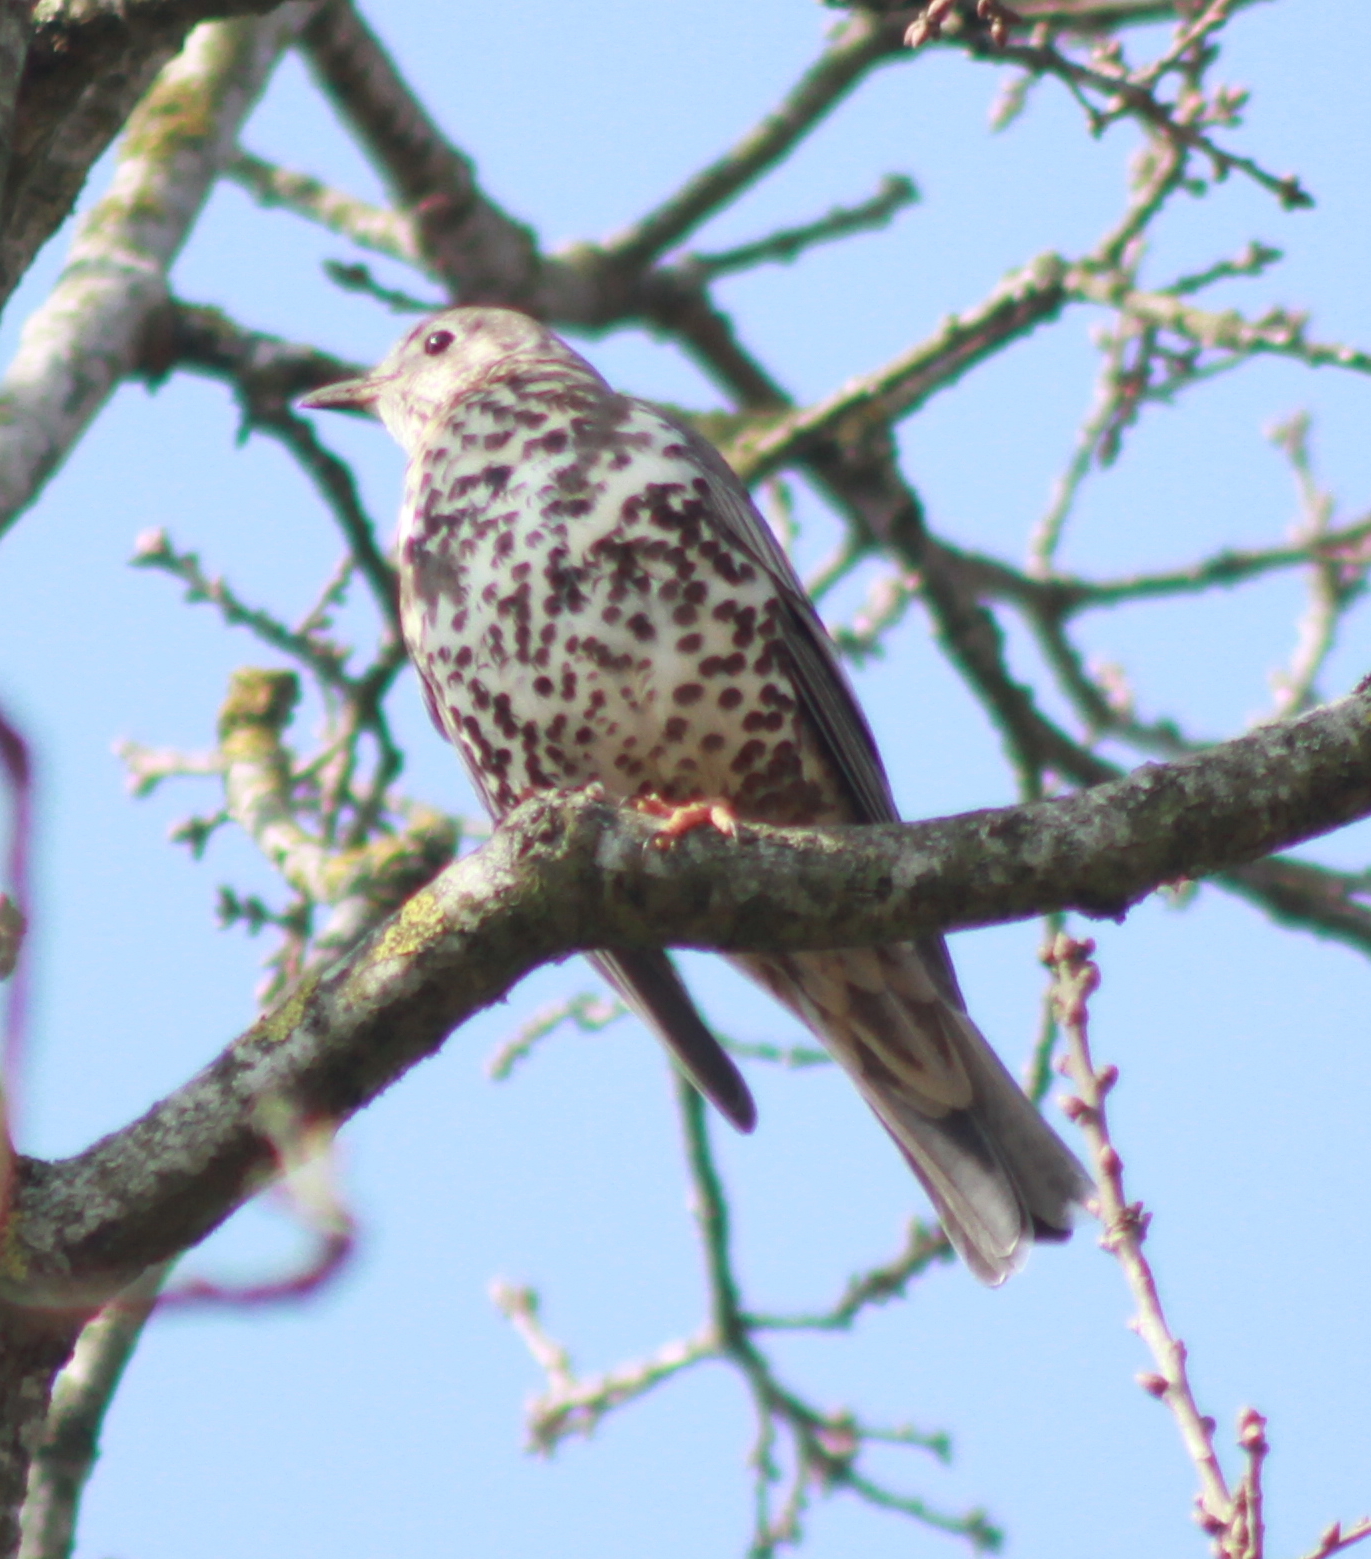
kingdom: Animalia
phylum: Chordata
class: Aves
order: Passeriformes
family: Turdidae
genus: Turdus
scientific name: Turdus viscivorus
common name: Mistle thrush
